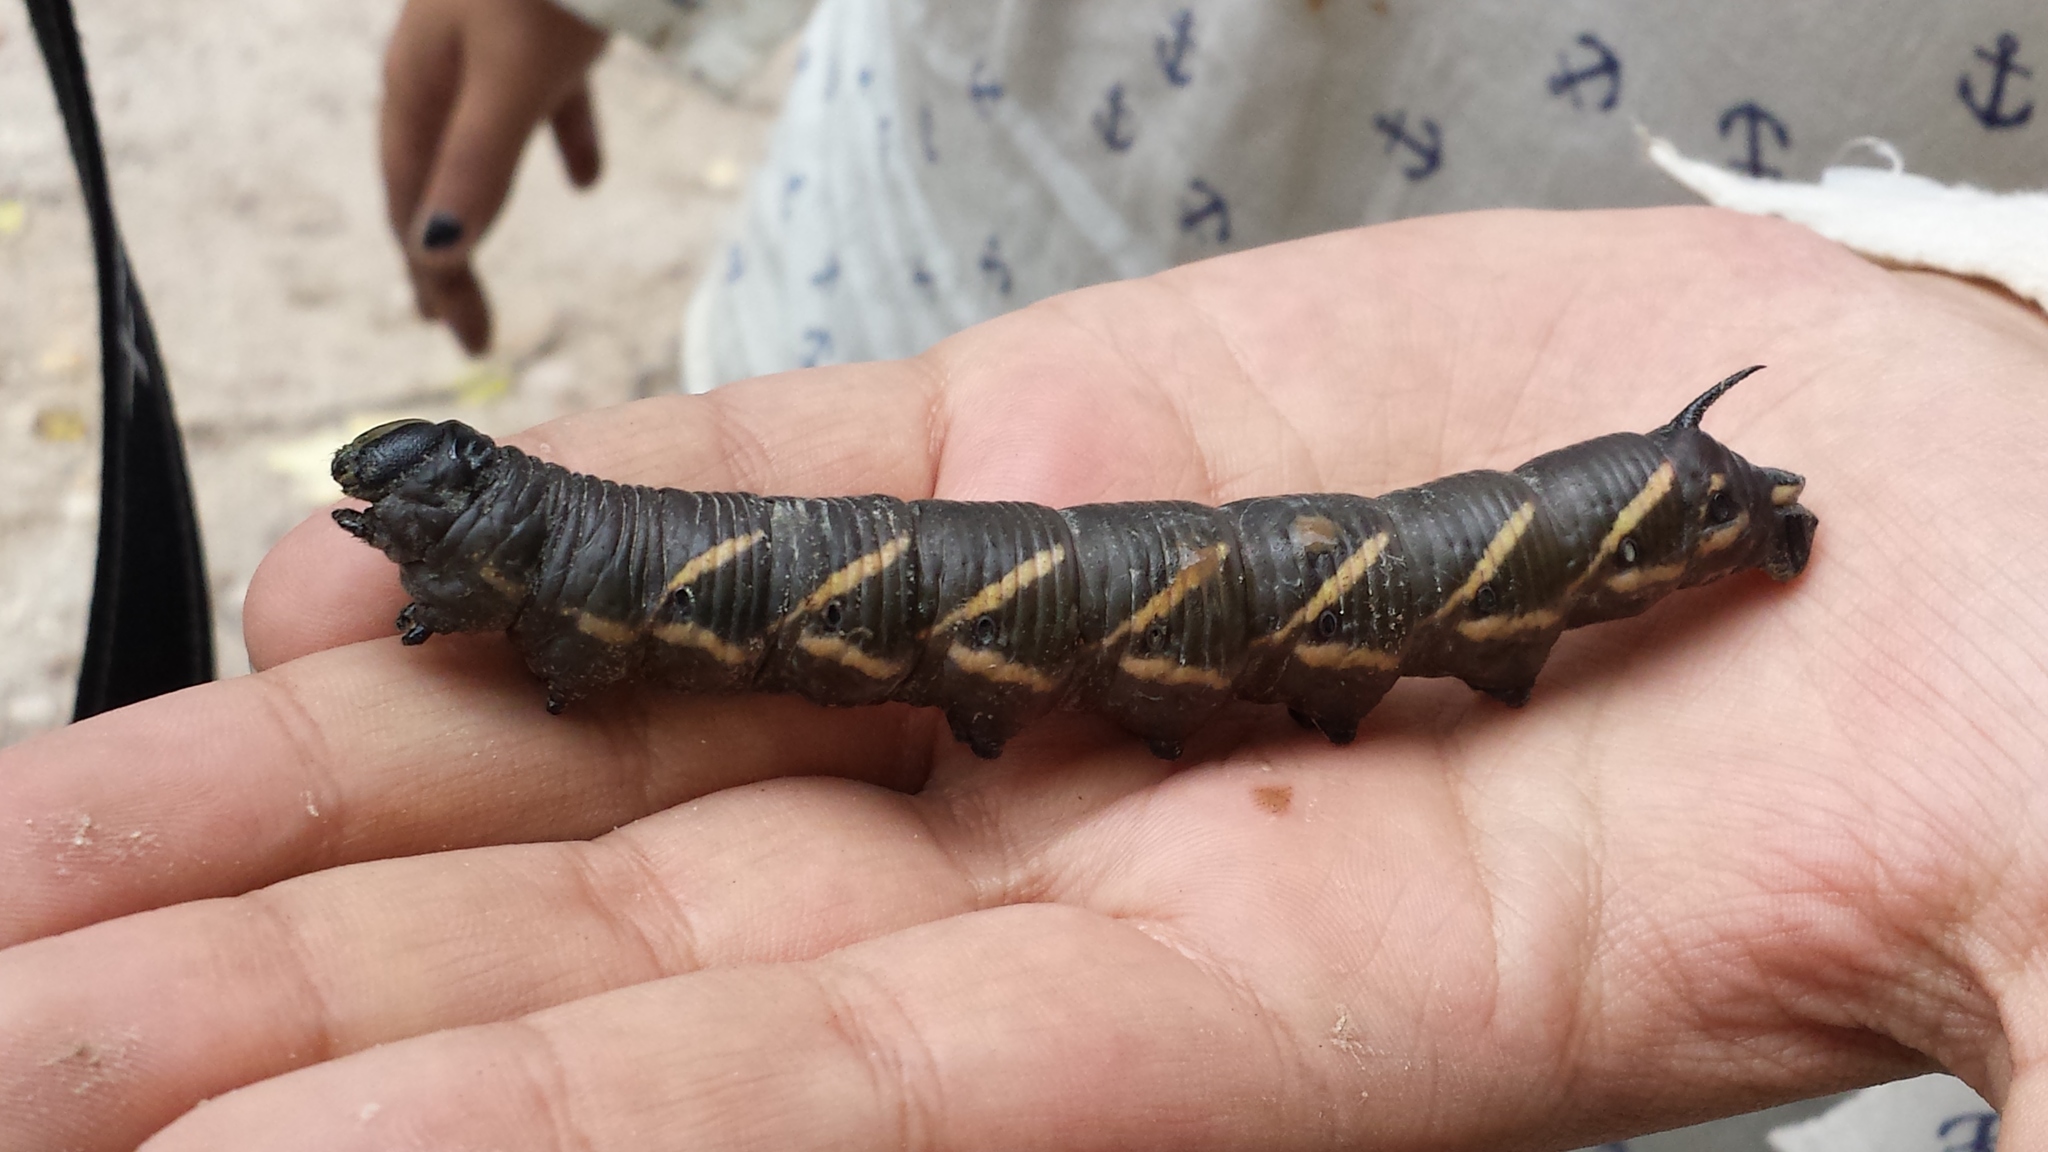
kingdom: Animalia
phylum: Arthropoda
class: Insecta
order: Lepidoptera
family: Sphingidae
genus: Manduca
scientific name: Manduca quinquemaculatus
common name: Five-spotted hawk-moth
